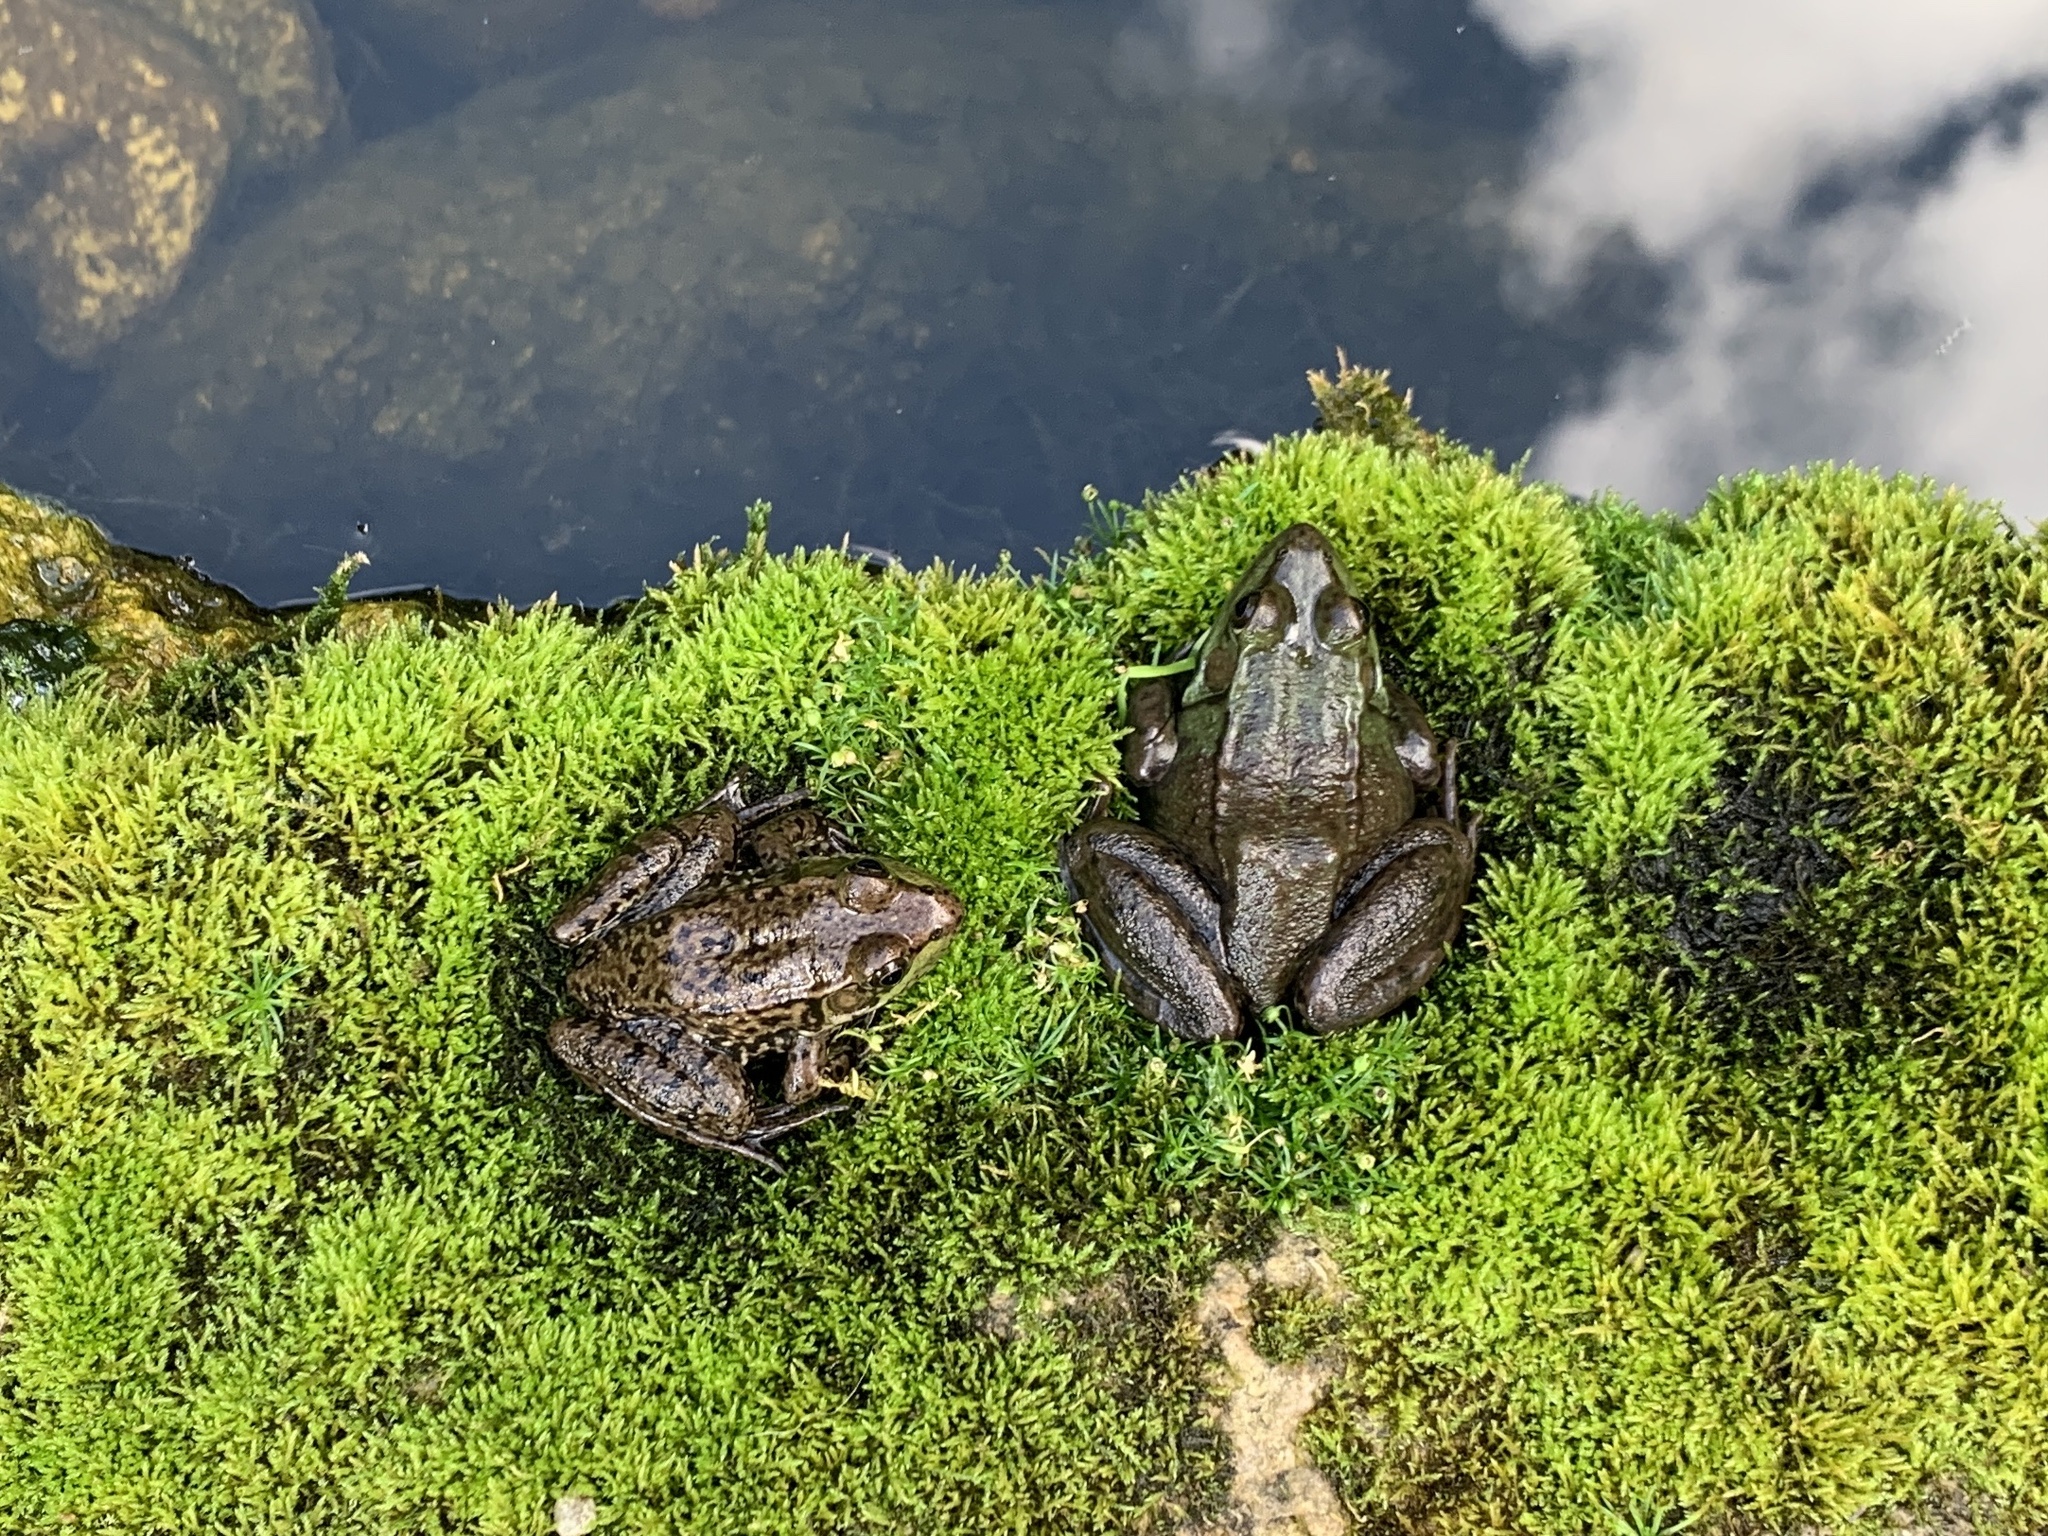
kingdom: Animalia
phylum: Chordata
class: Amphibia
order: Anura
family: Ranidae
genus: Lithobates
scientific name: Lithobates clamitans
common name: Green frog
